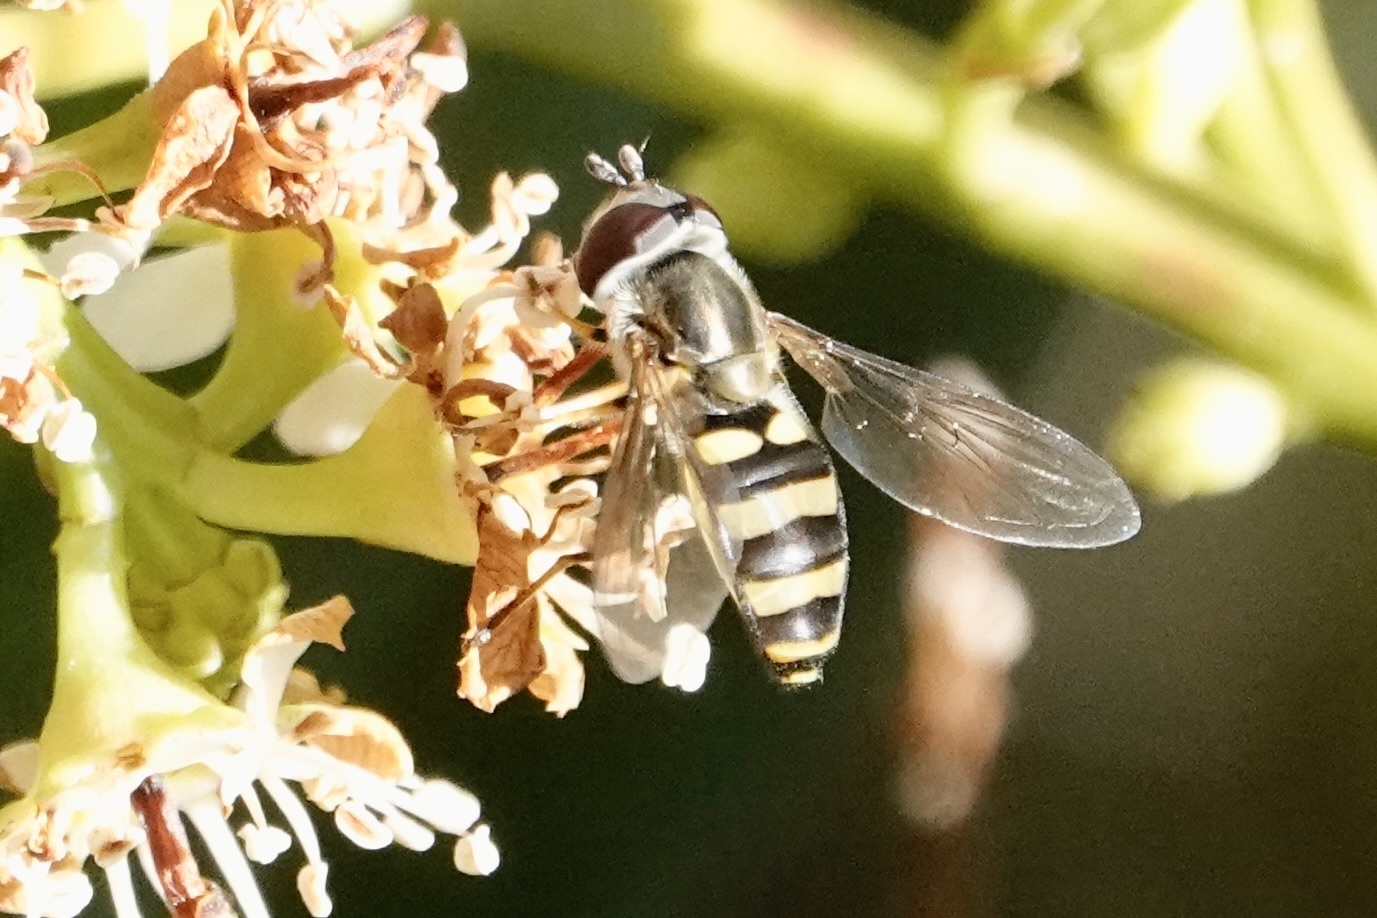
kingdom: Animalia
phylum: Arthropoda
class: Insecta
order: Diptera
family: Syrphidae
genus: Eupeodes
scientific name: Eupeodes
